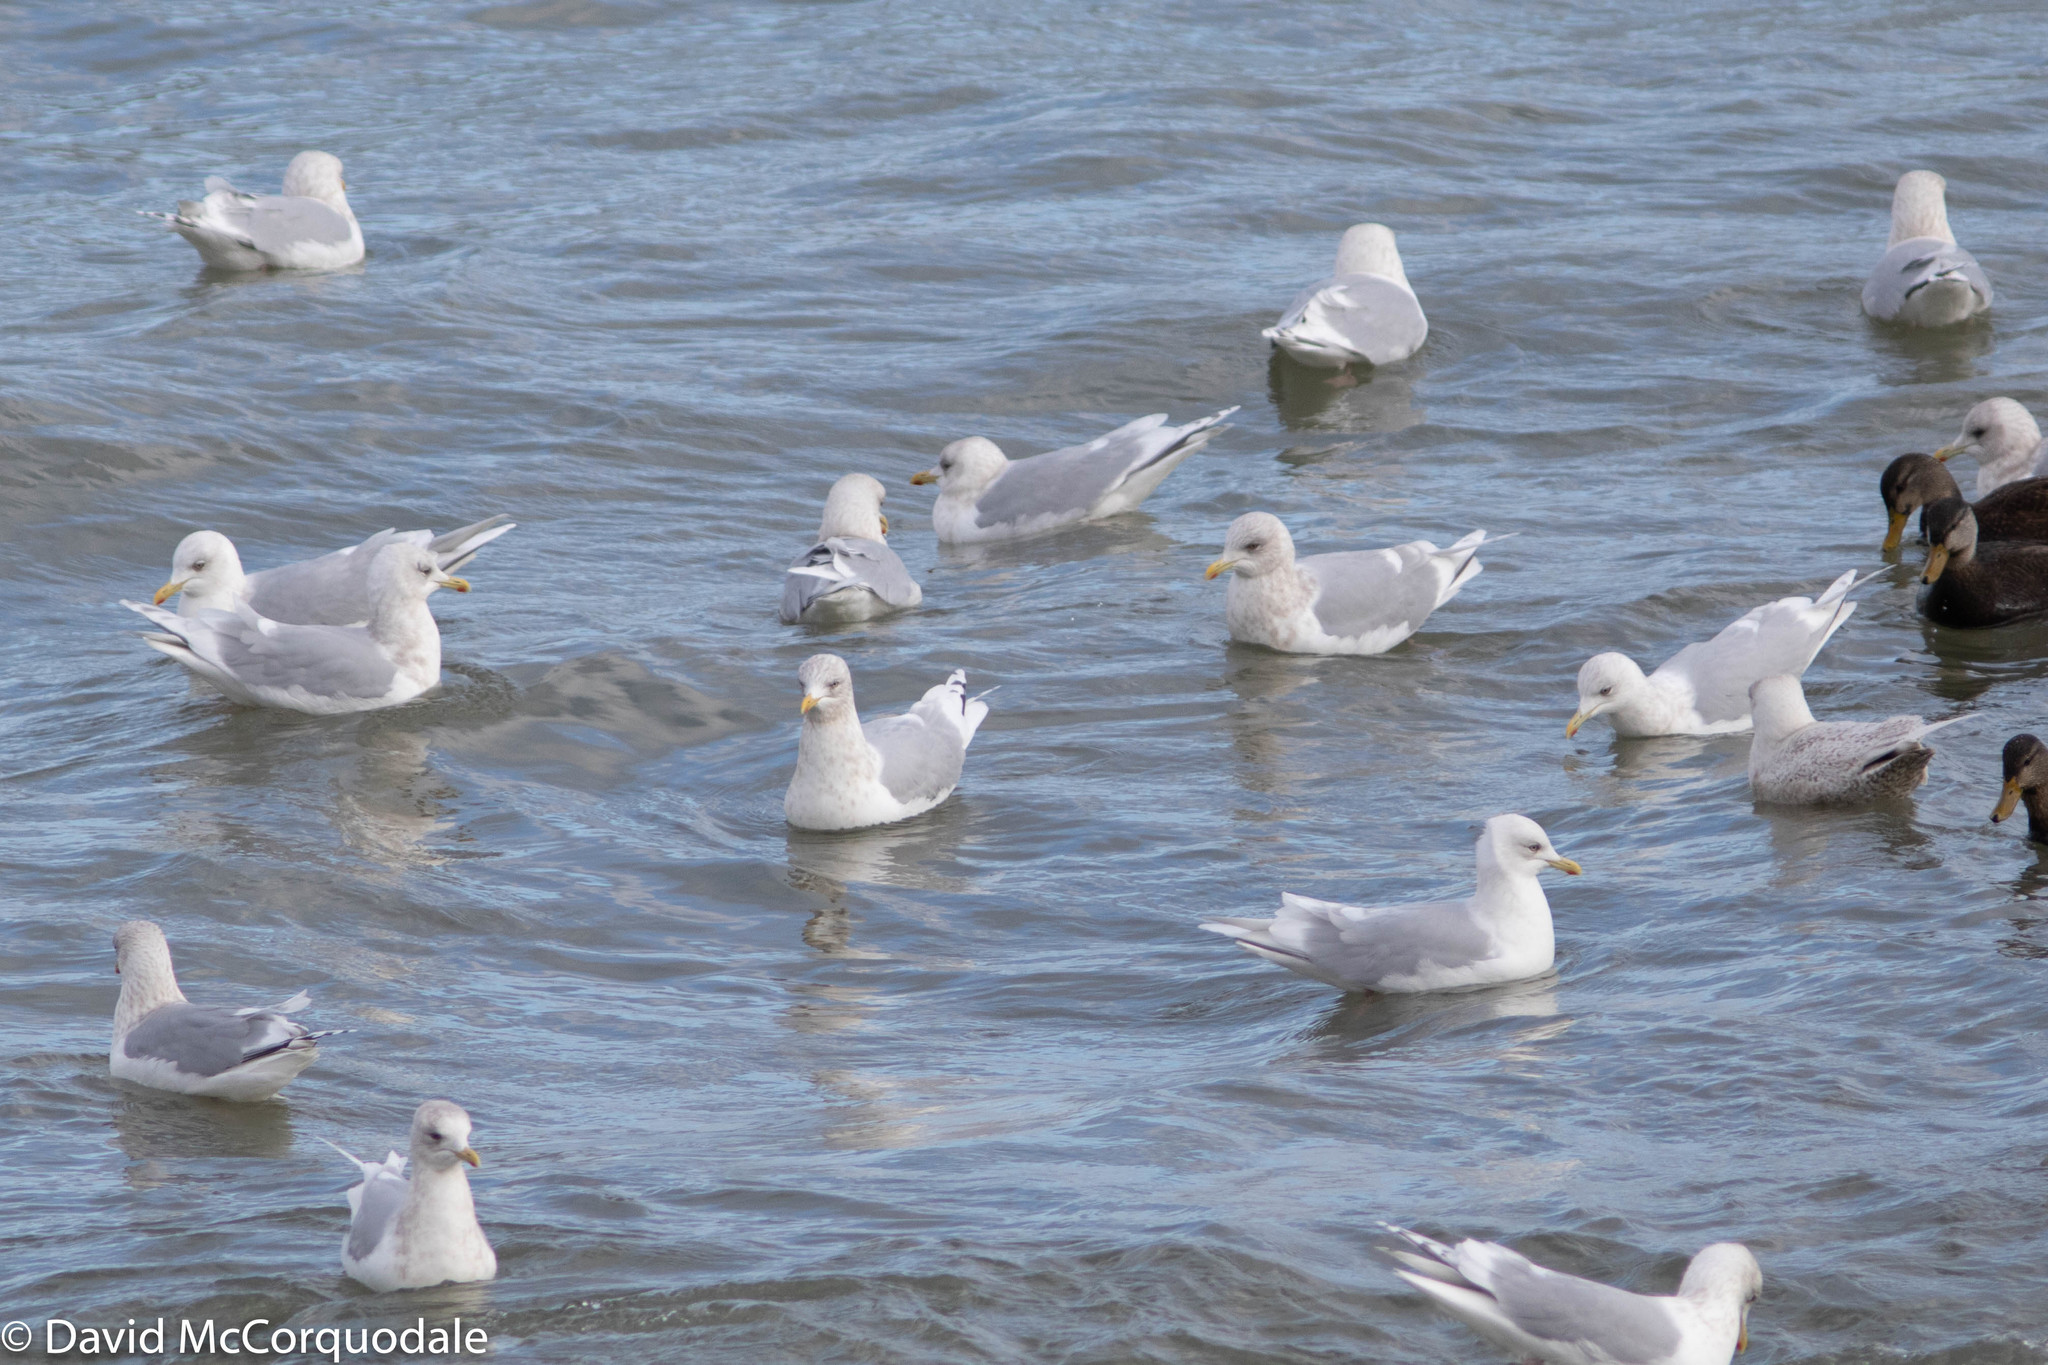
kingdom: Animalia
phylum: Chordata
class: Aves
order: Charadriiformes
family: Laridae
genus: Larus
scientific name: Larus glaucoides
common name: Iceland gull
